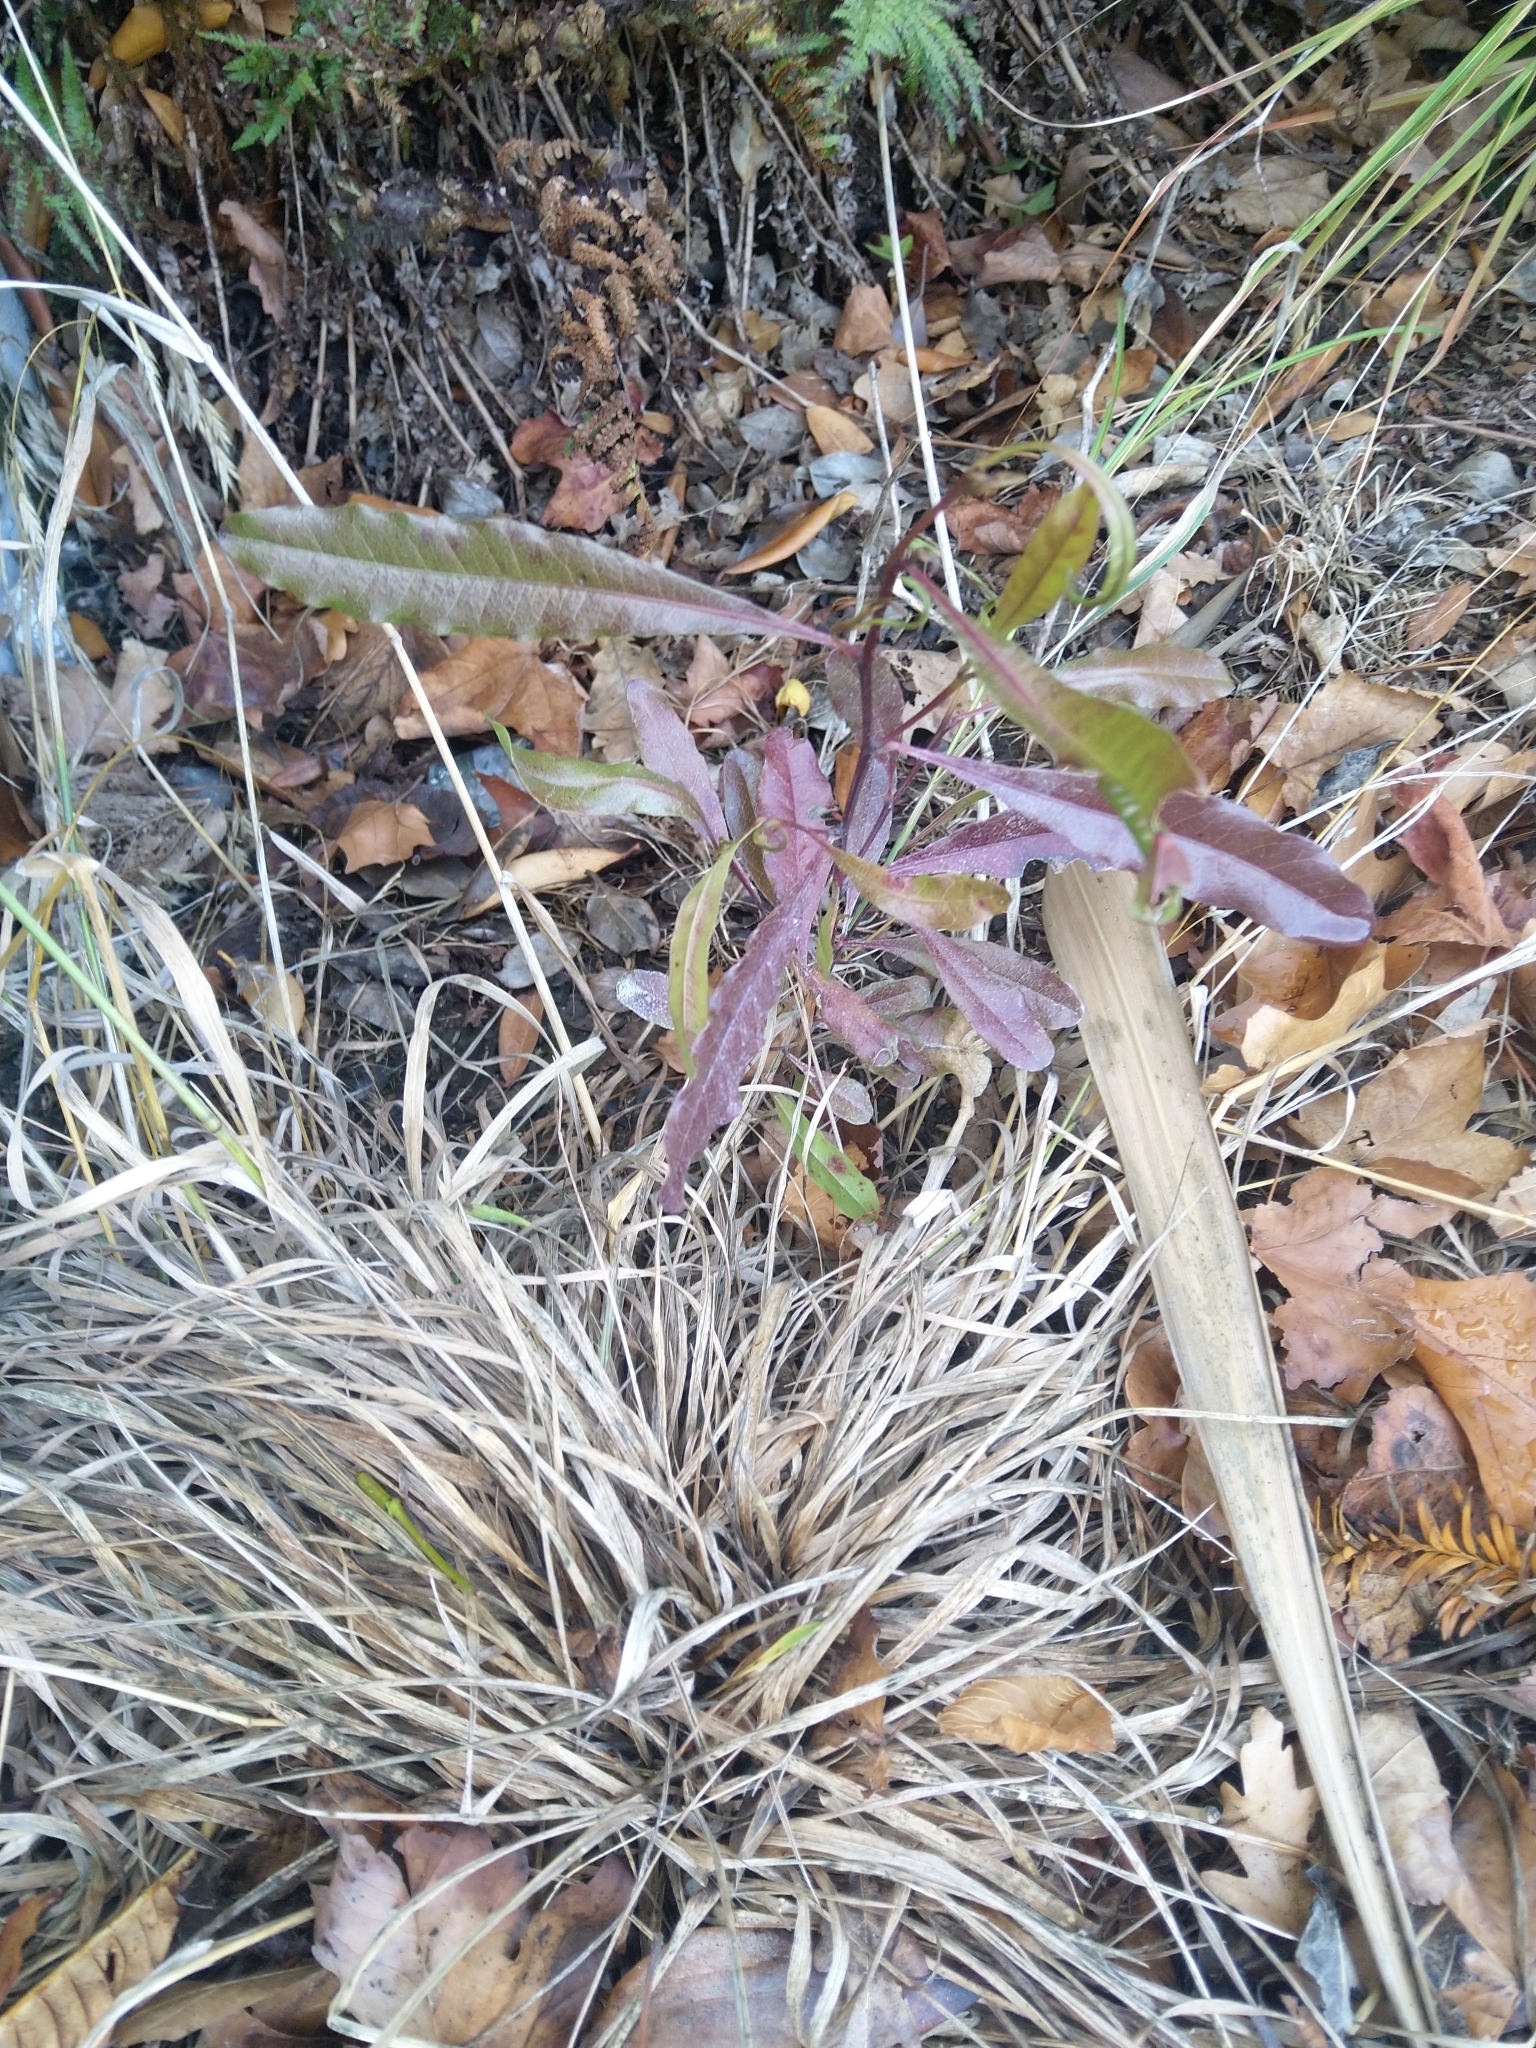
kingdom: Plantae
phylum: Tracheophyta
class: Magnoliopsida
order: Sapindales
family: Sapindaceae
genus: Dodonaea
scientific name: Dodonaea viscosa
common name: Hopbush
